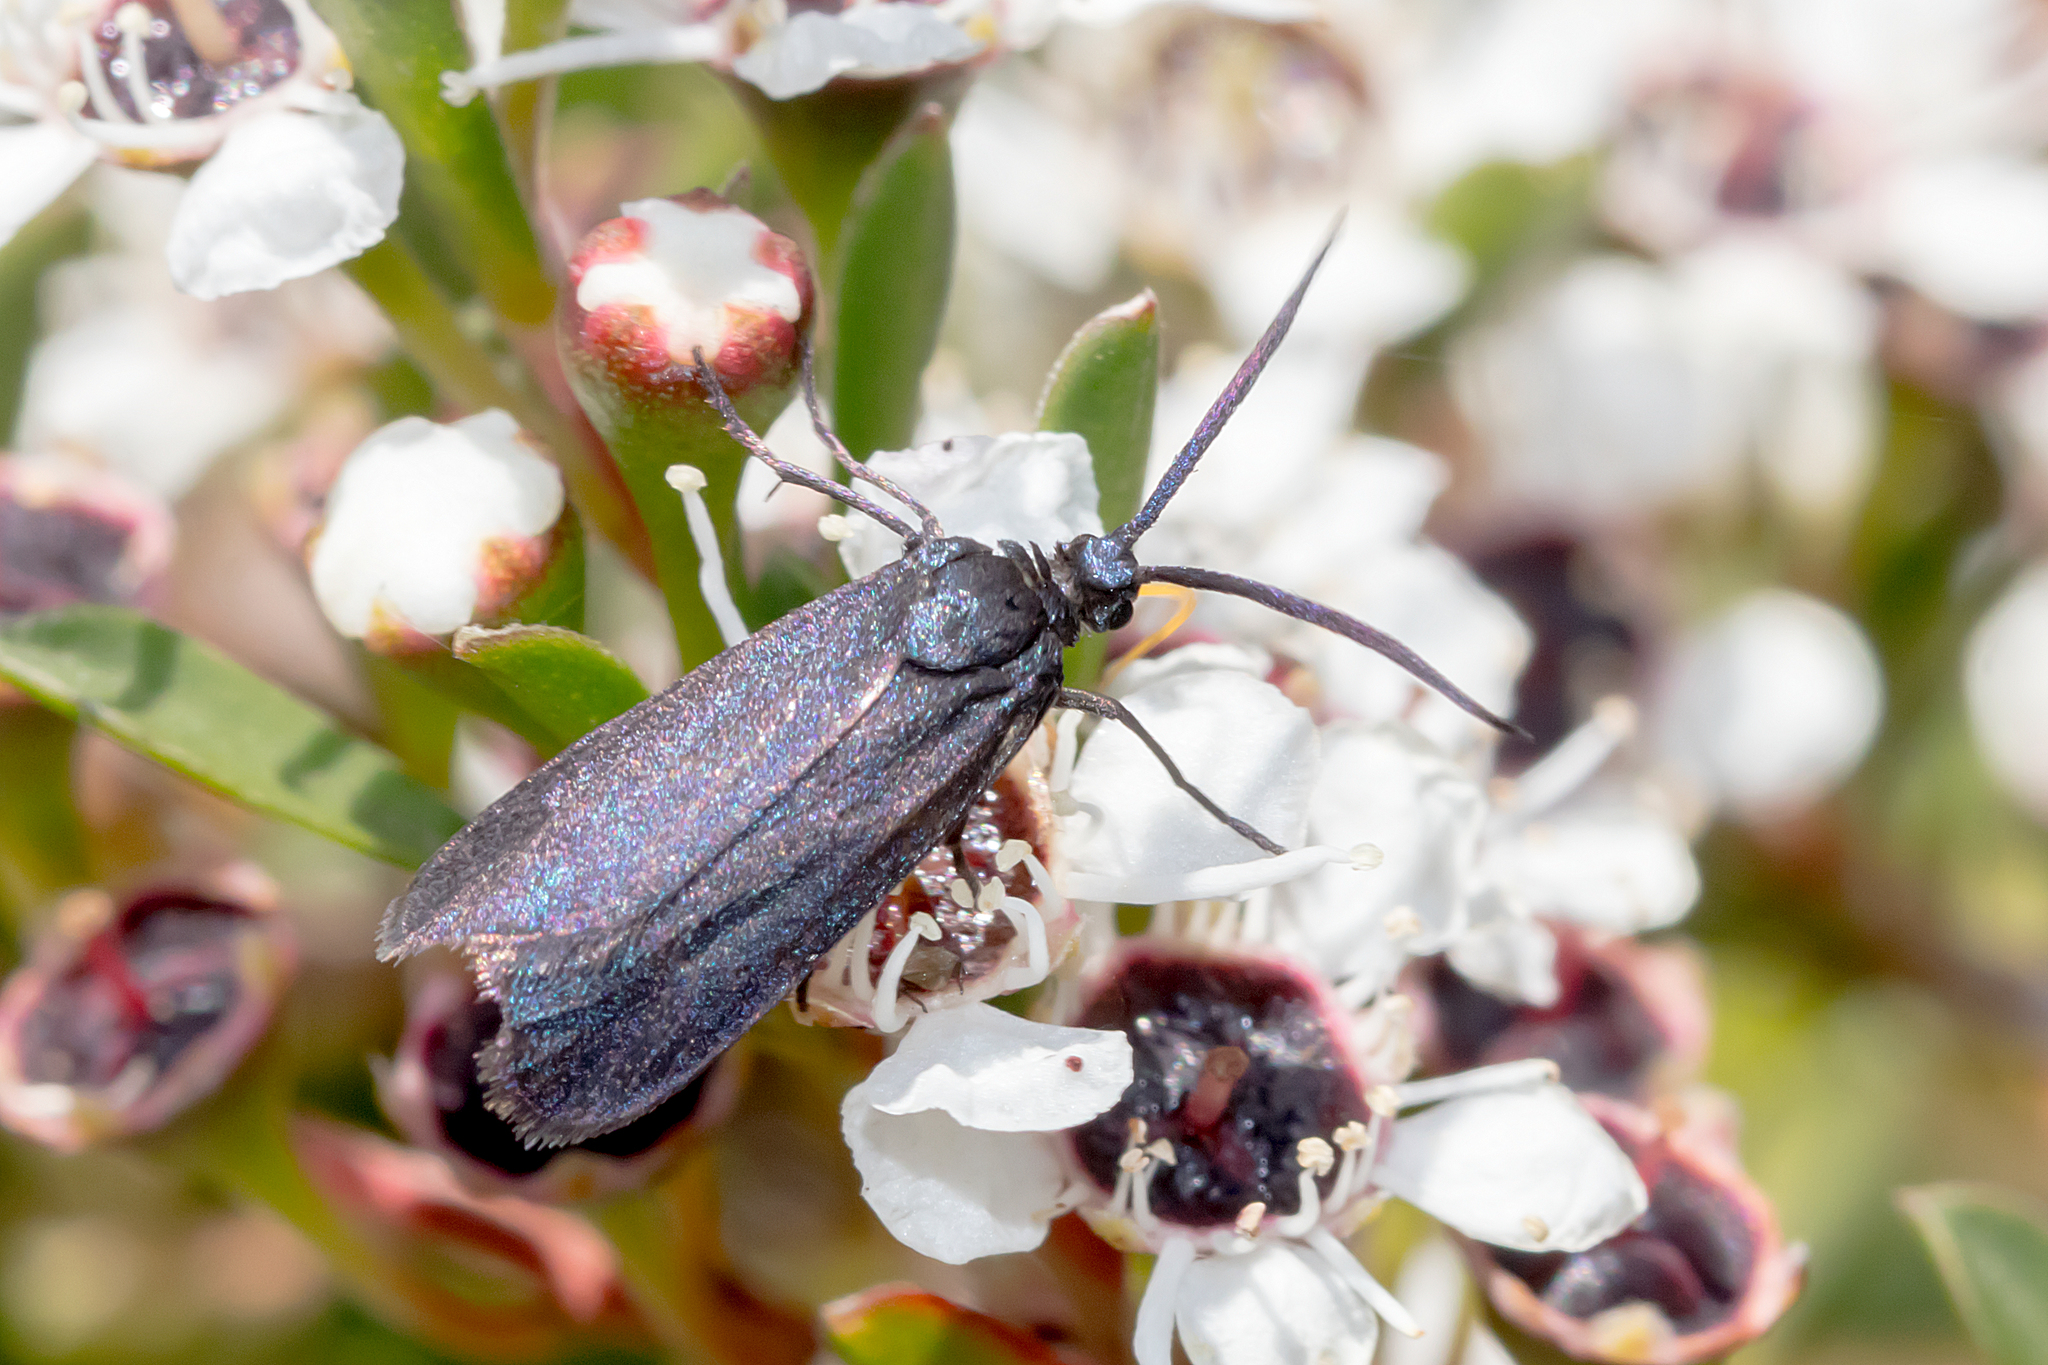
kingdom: Animalia
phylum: Arthropoda
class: Insecta
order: Lepidoptera
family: Zygaenidae
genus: Myrtartona
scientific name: Myrtartona coronias
